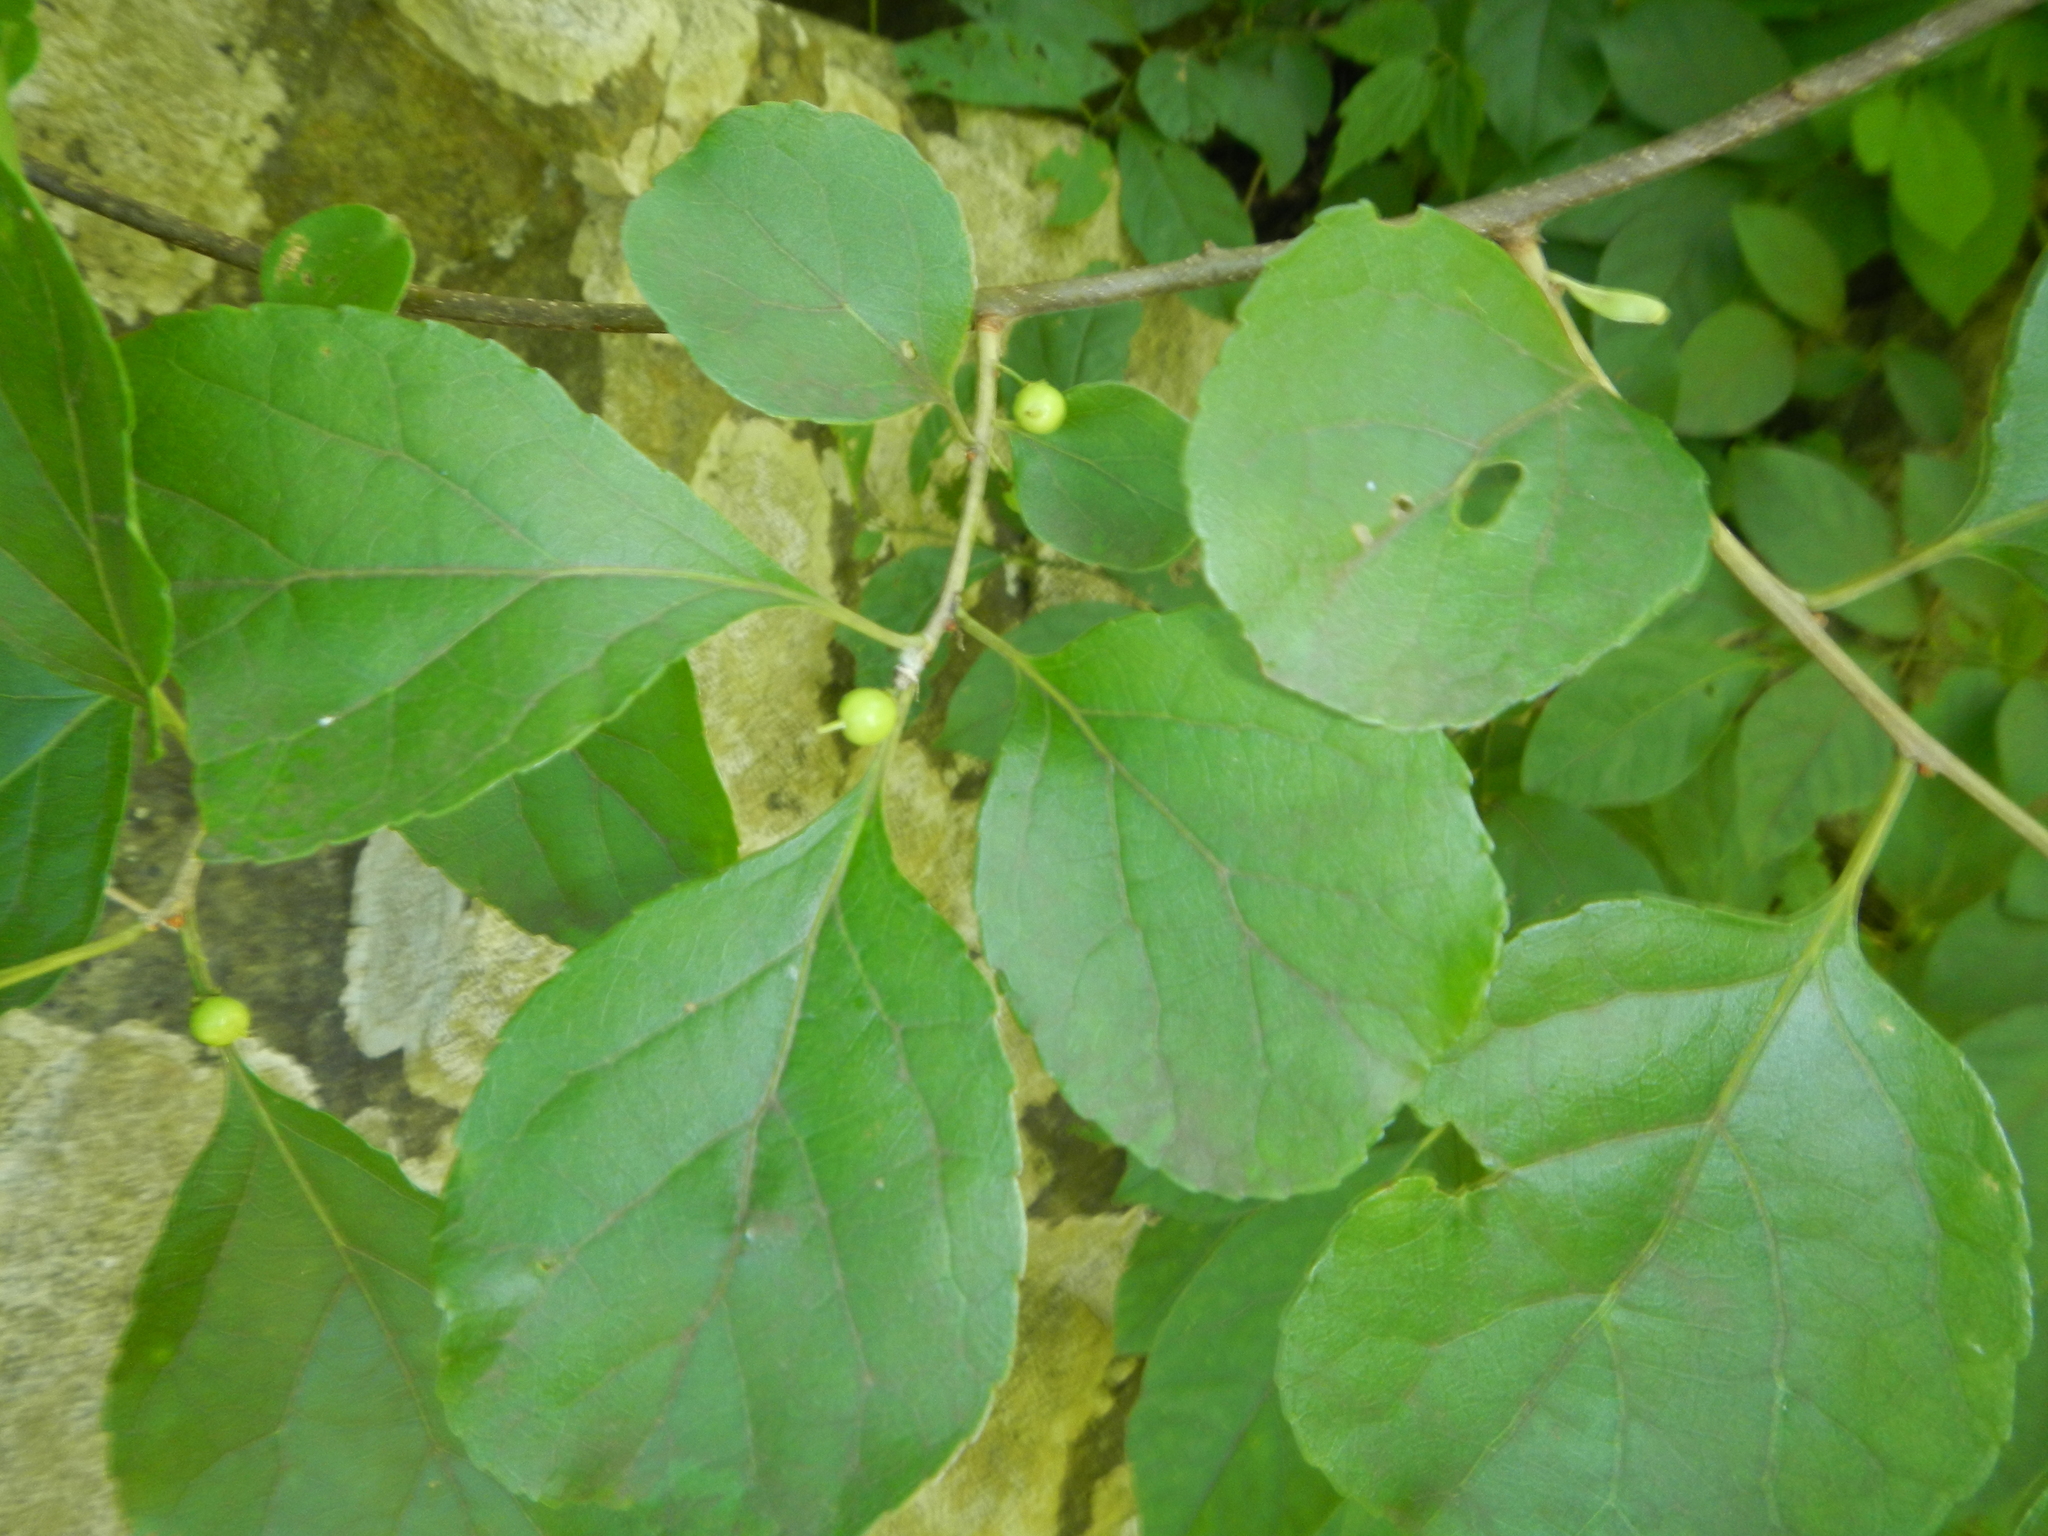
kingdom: Plantae
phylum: Tracheophyta
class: Magnoliopsida
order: Celastrales
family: Celastraceae
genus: Celastrus
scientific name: Celastrus orbiculatus
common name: Oriental bittersweet
